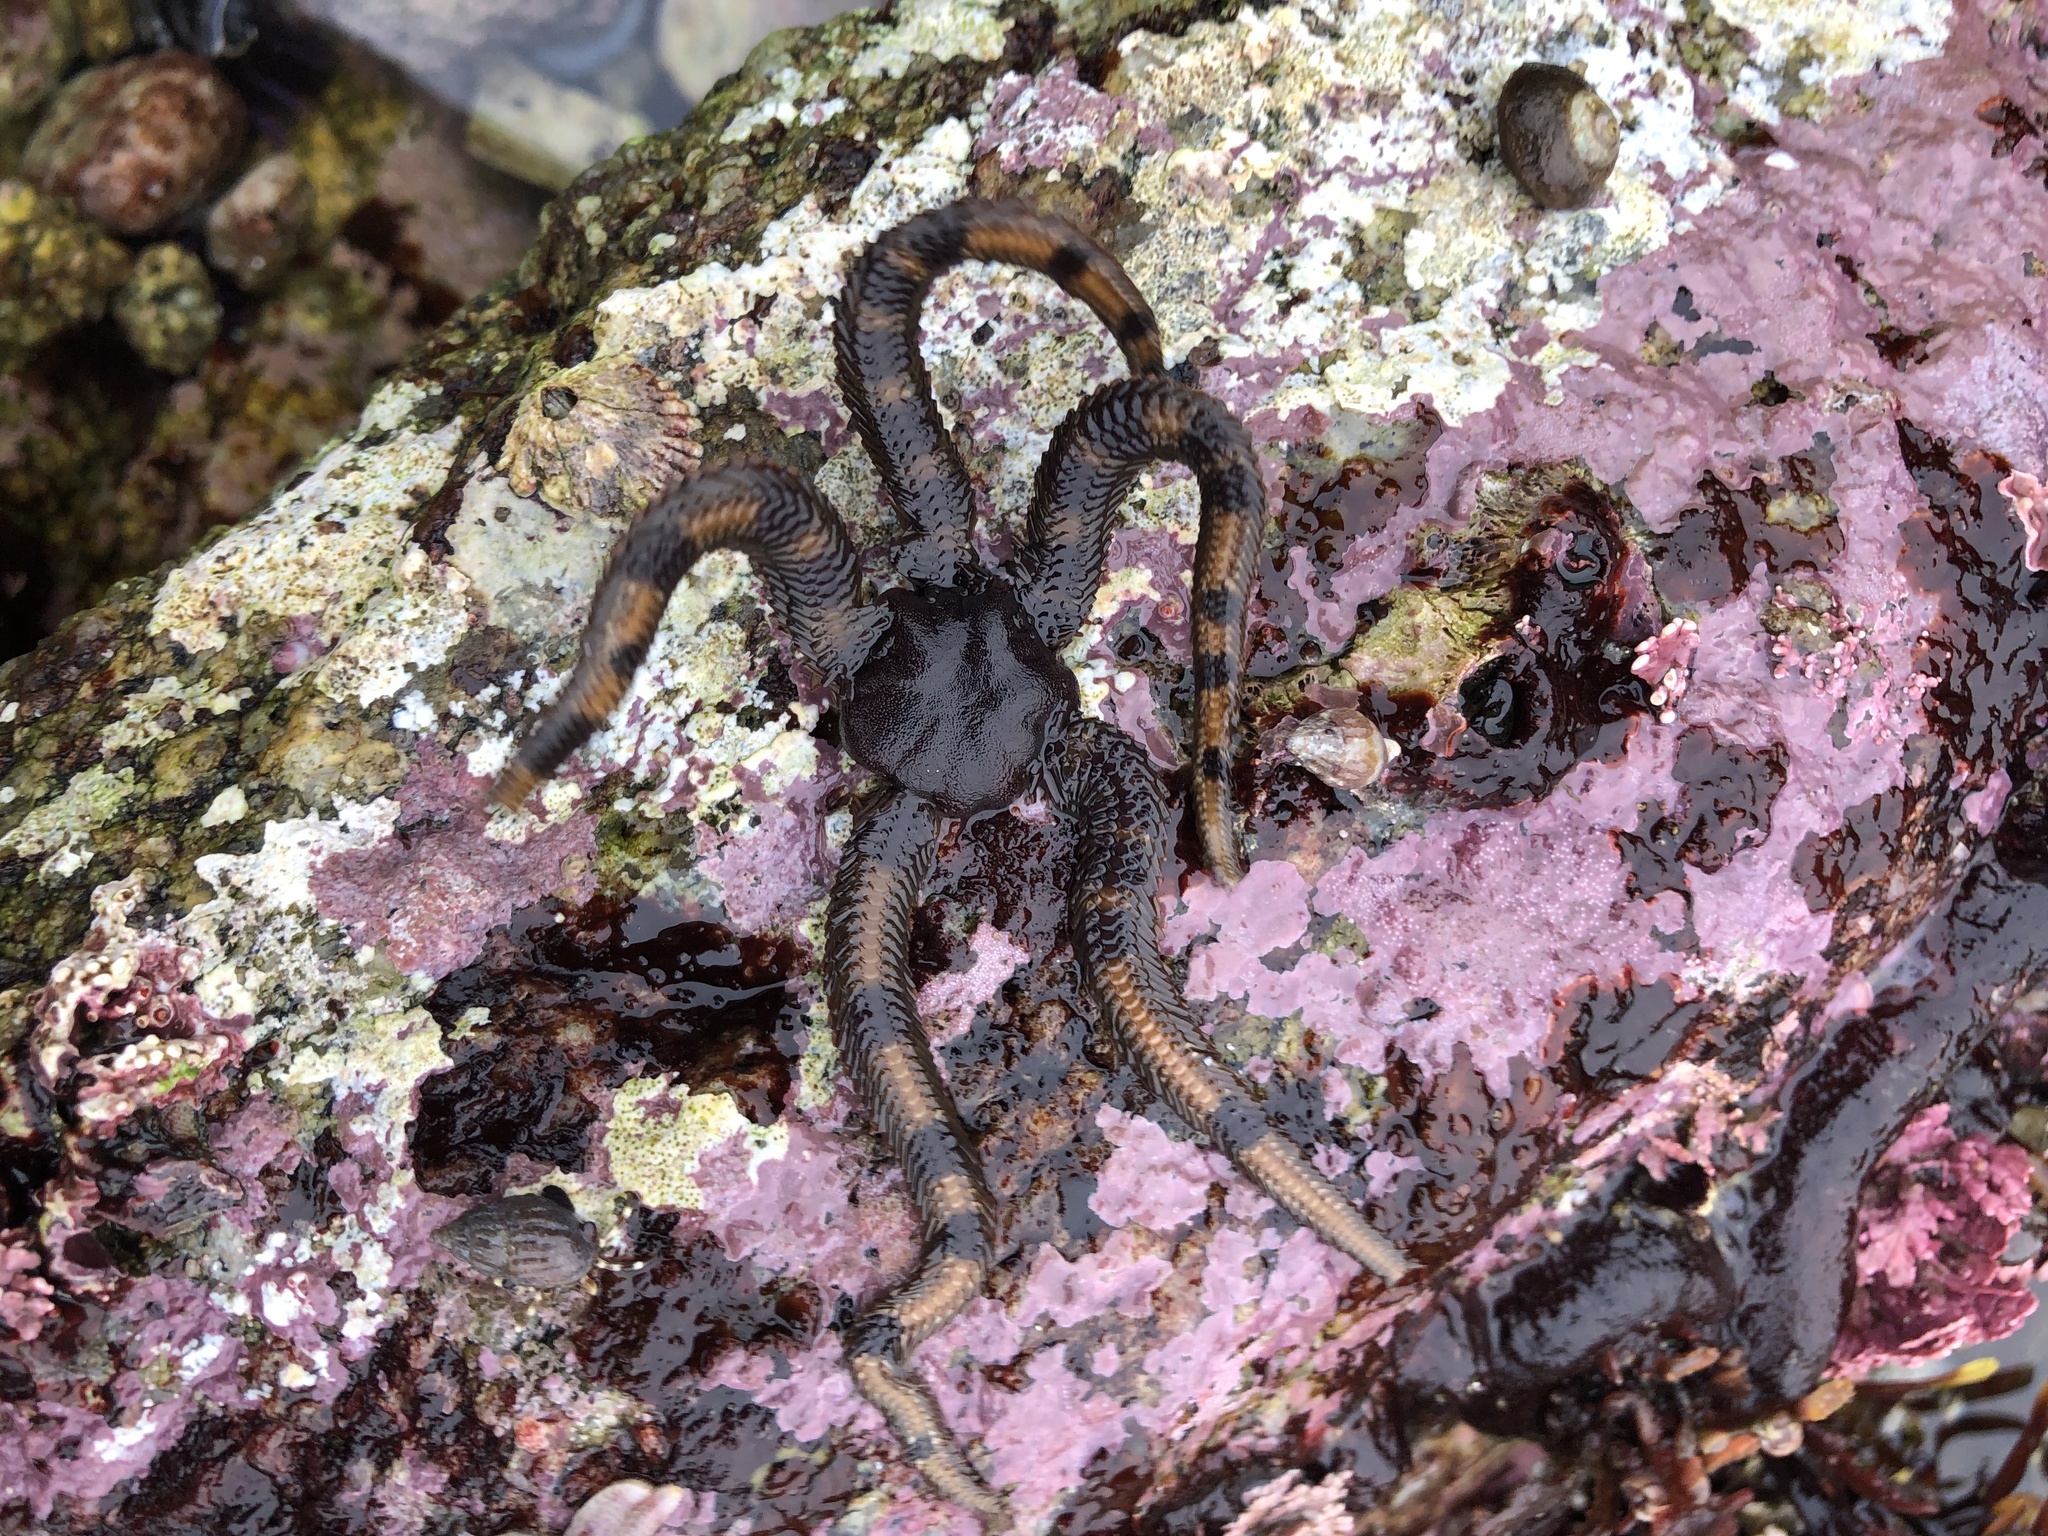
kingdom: Animalia
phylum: Echinodermata
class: Ophiuroidea
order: Ophiacanthida
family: Ophiopteridae
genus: Ophiopteris
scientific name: Ophiopteris papillosa
